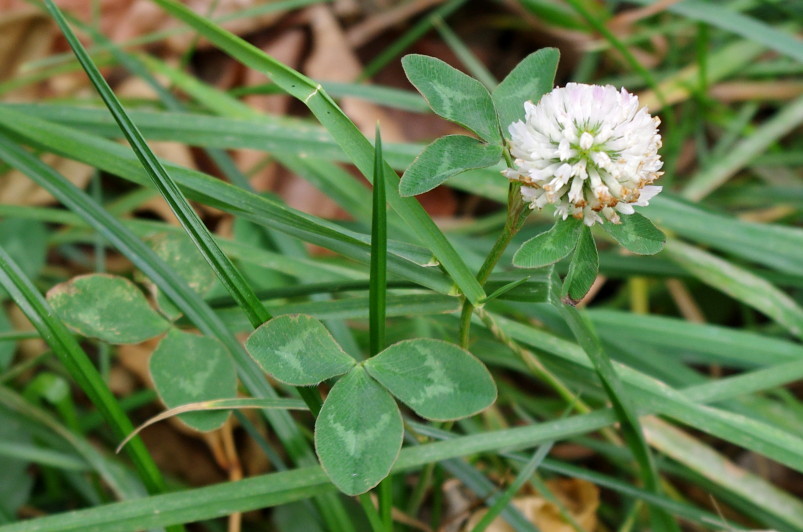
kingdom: Plantae
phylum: Tracheophyta
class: Magnoliopsida
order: Fabales
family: Fabaceae
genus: Trifolium
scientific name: Trifolium pratense
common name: Red clover
